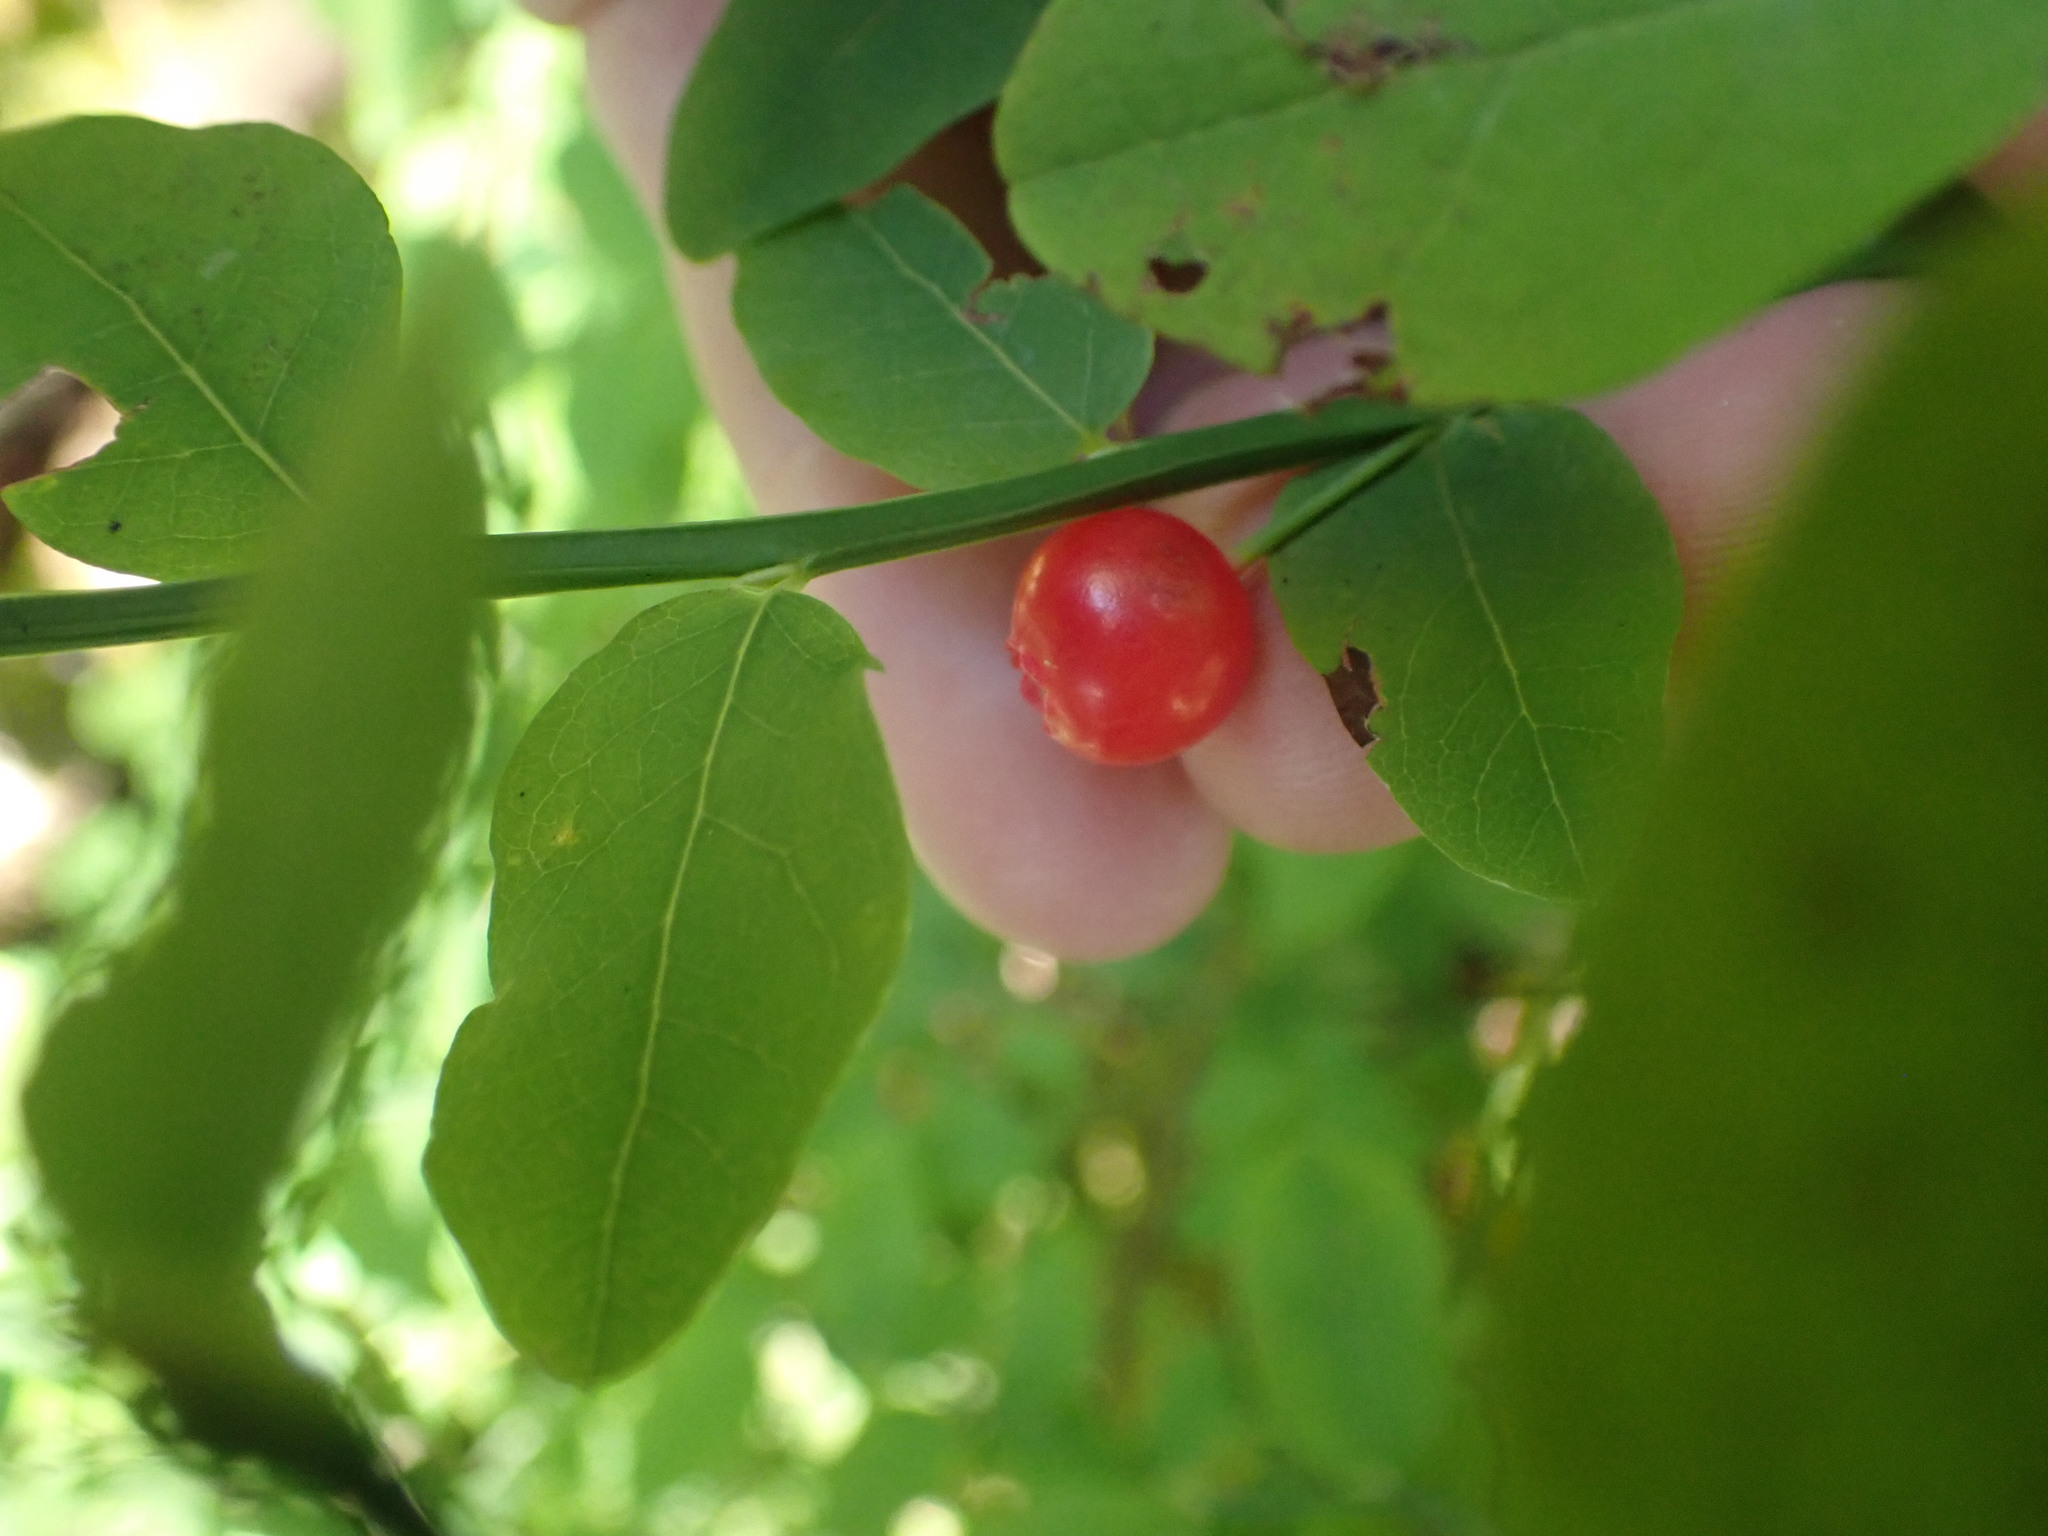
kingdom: Plantae
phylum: Tracheophyta
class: Magnoliopsida
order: Ericales
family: Ericaceae
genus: Vaccinium
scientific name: Vaccinium parvifolium
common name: Red-huckleberry
